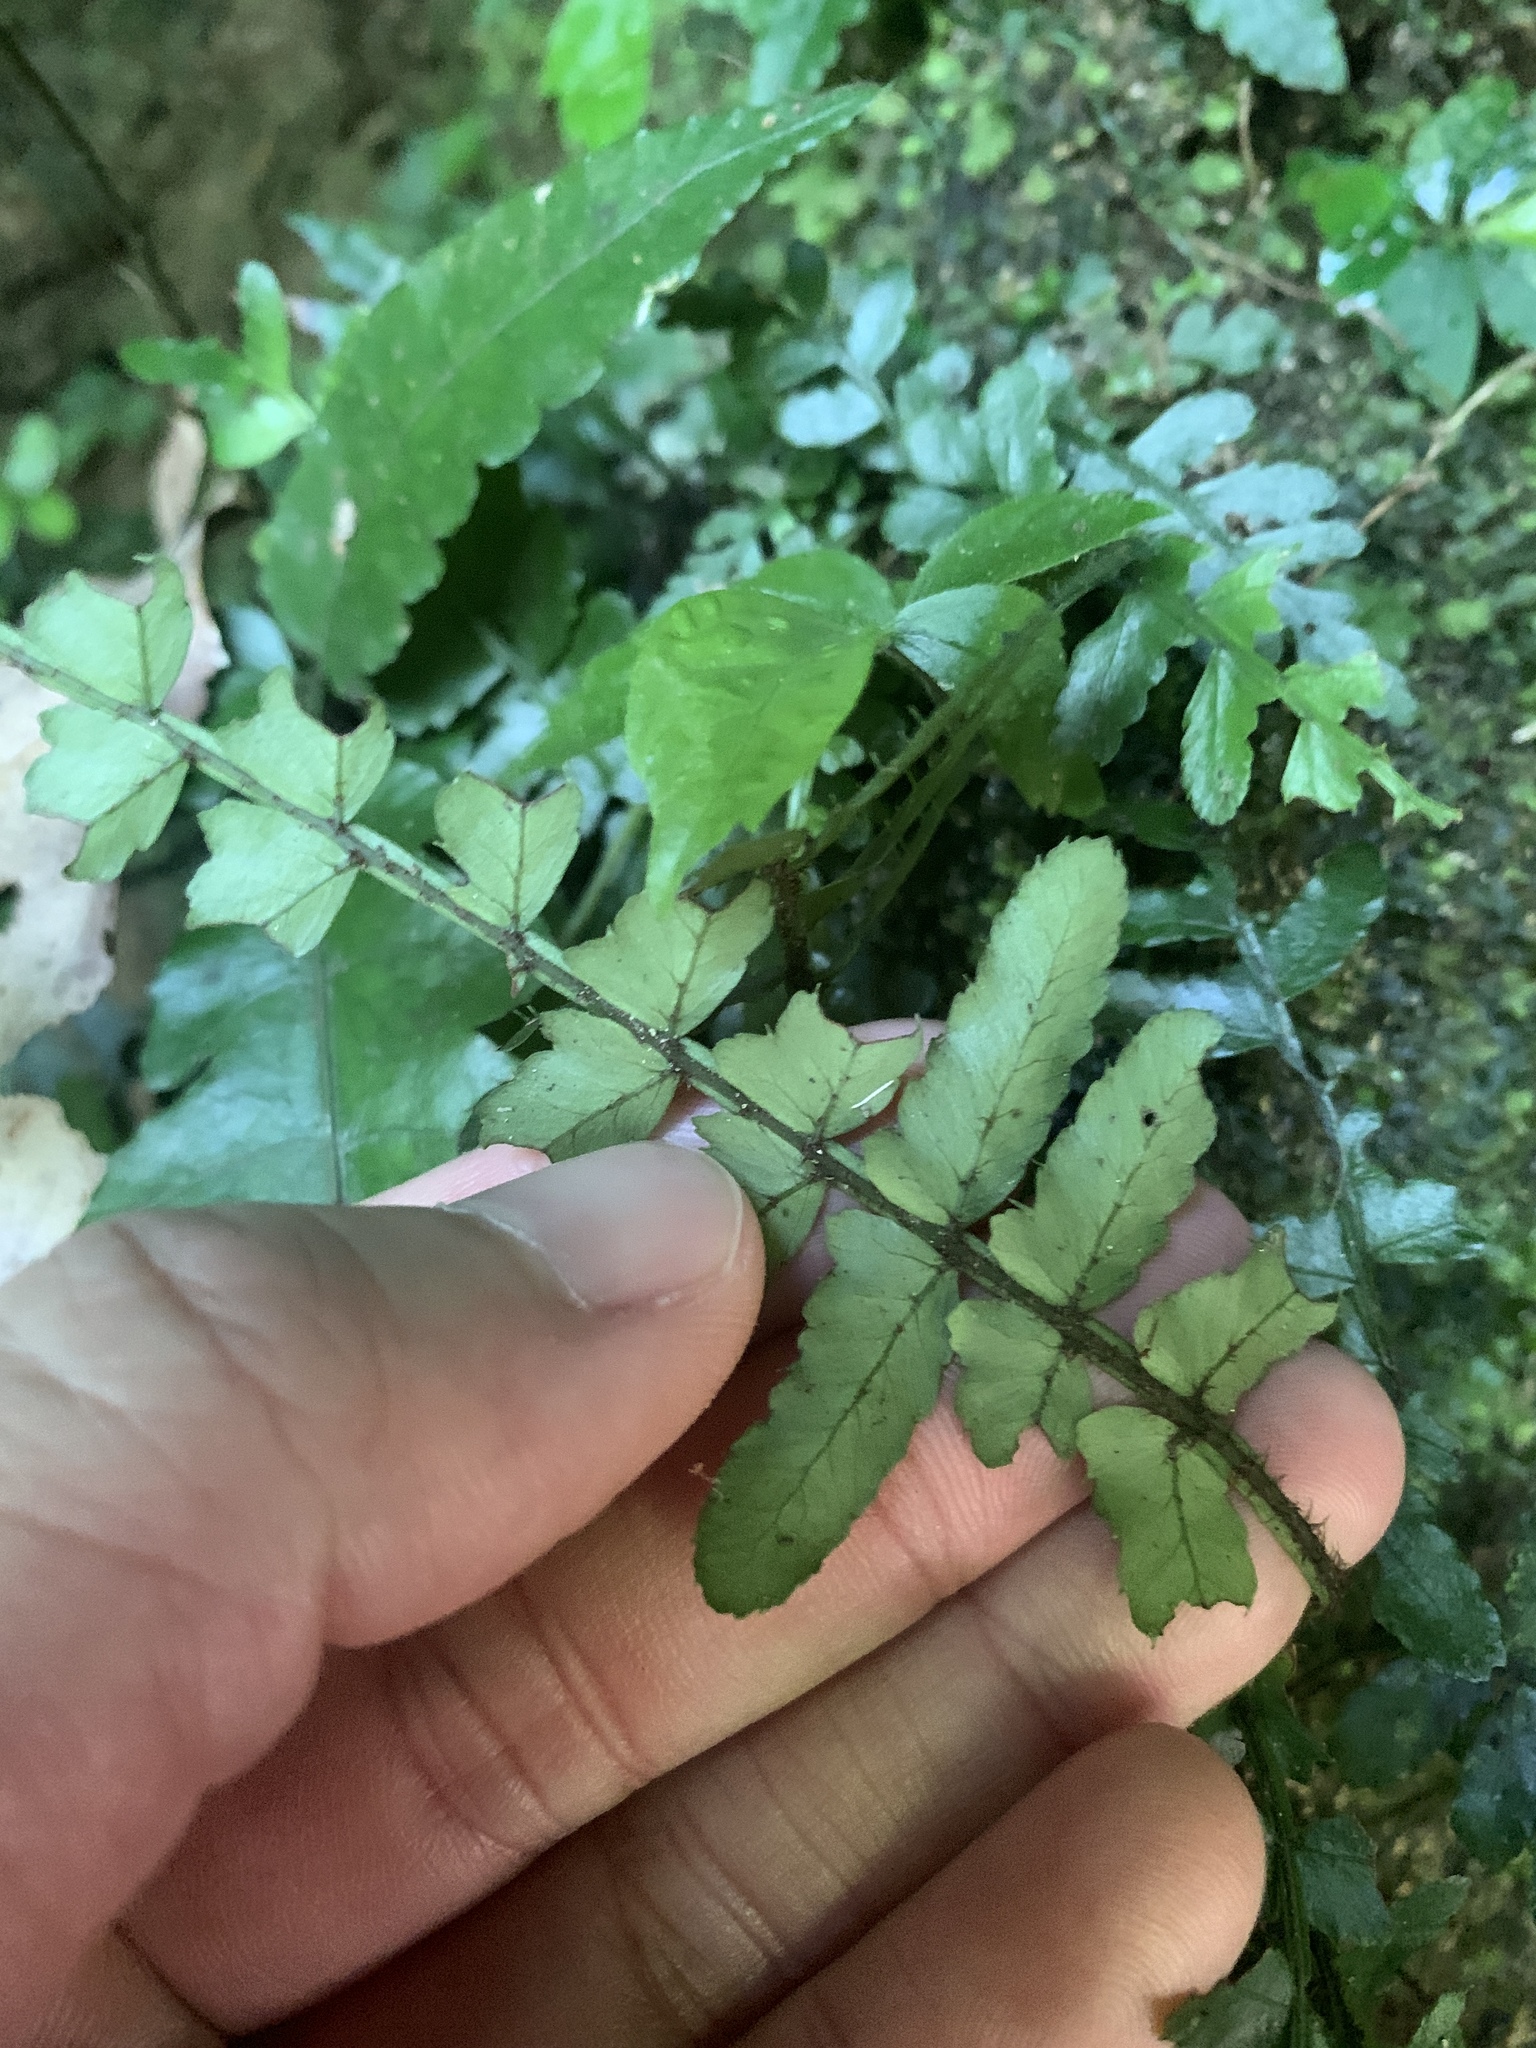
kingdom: Plantae
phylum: Tracheophyta
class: Polypodiopsida
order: Polypodiales
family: Dryopteridaceae
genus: Bolbitis
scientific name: Bolbitis appendiculata
